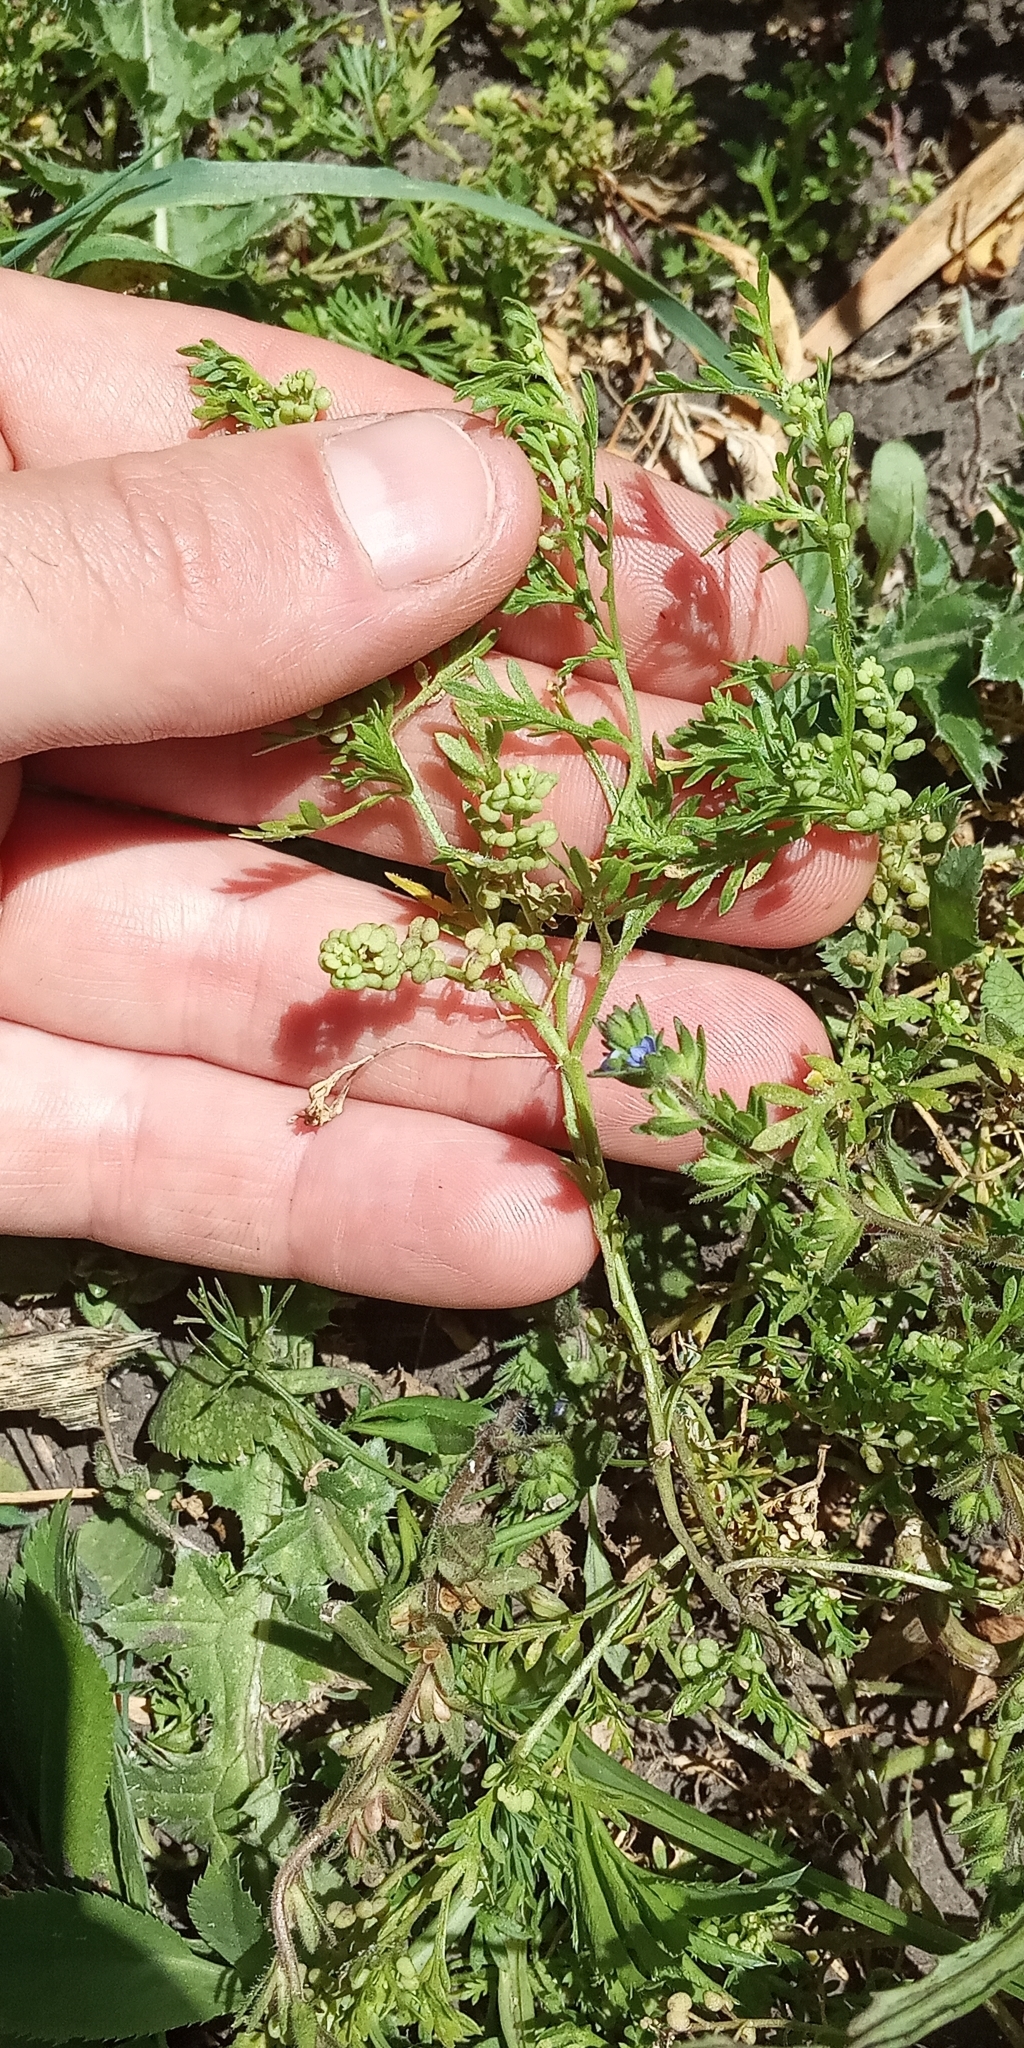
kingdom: Plantae
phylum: Tracheophyta
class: Magnoliopsida
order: Brassicales
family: Brassicaceae
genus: Lepidium
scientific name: Lepidium didymum
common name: Lesser swinecress
